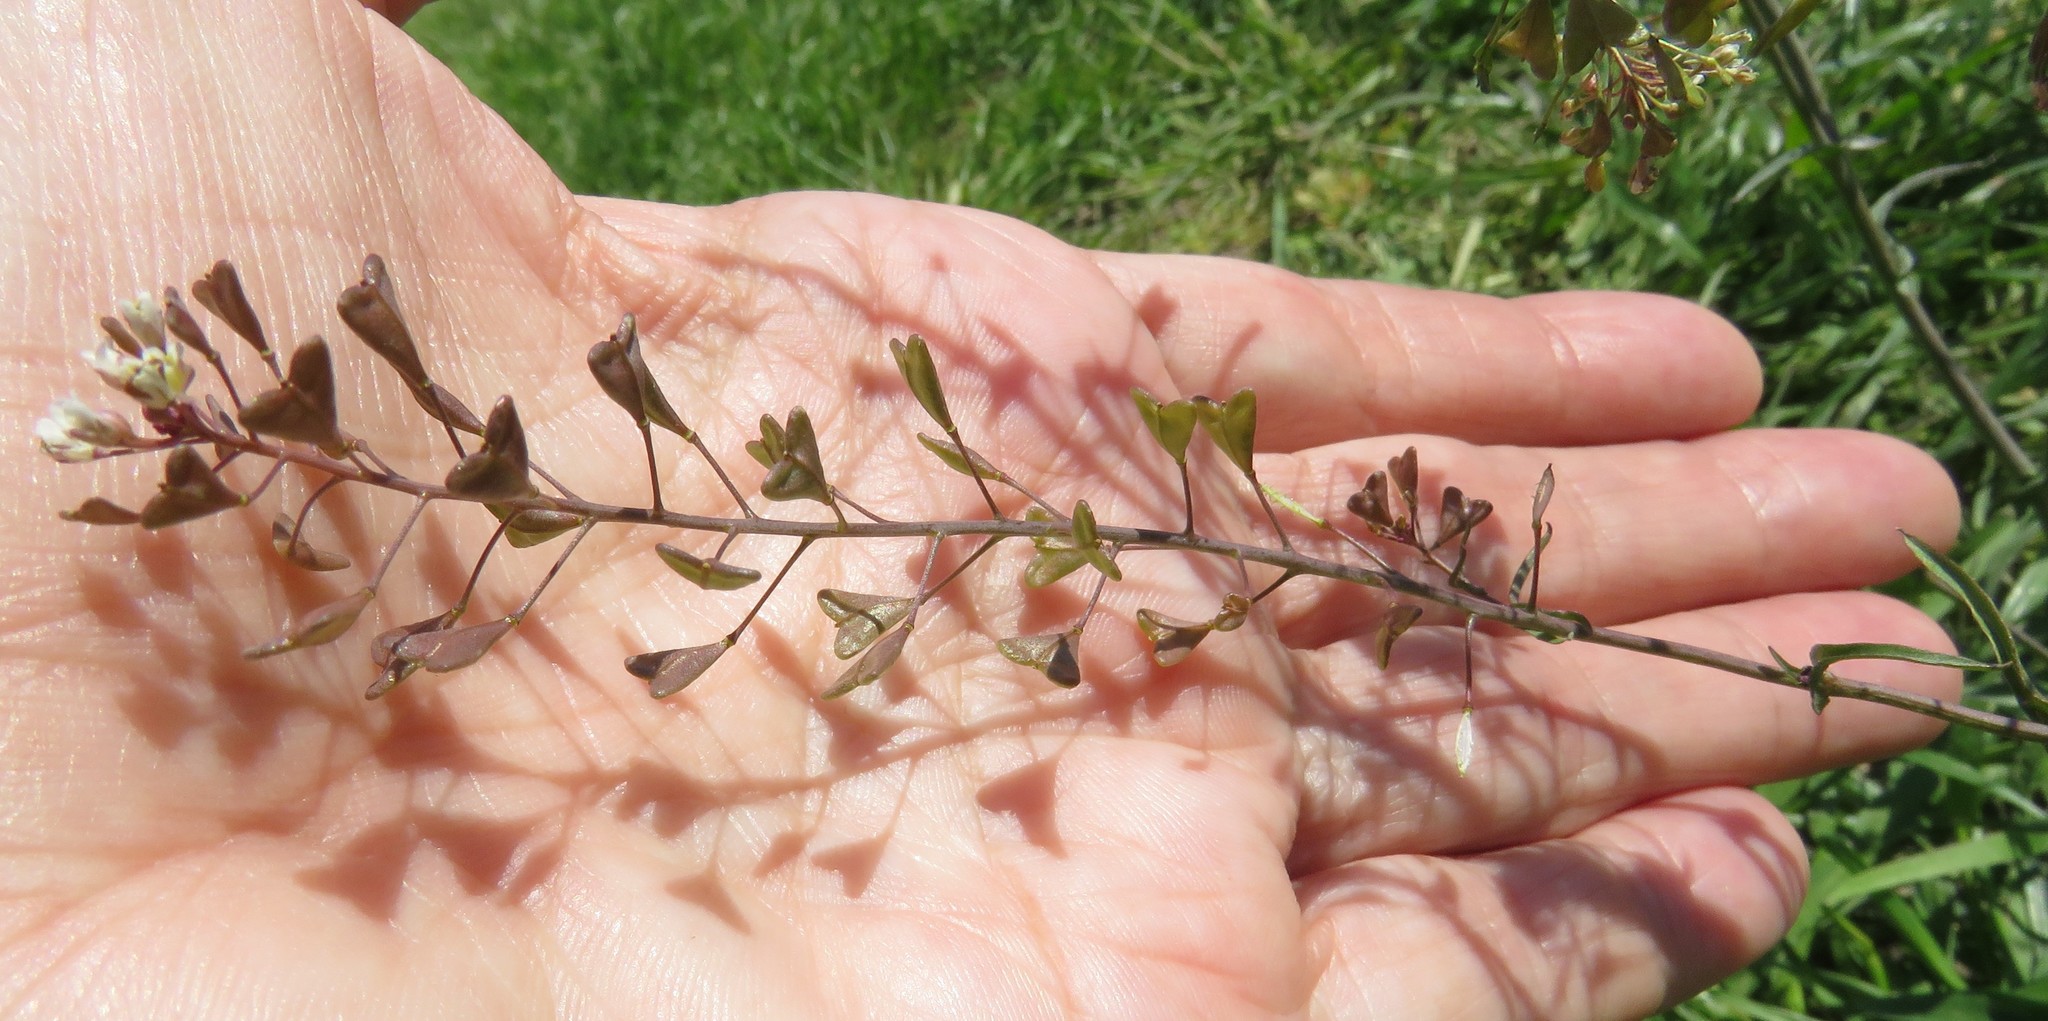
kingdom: Plantae
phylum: Tracheophyta
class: Magnoliopsida
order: Brassicales
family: Brassicaceae
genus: Capsella
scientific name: Capsella bursa-pastoris
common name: Shepherd's purse
